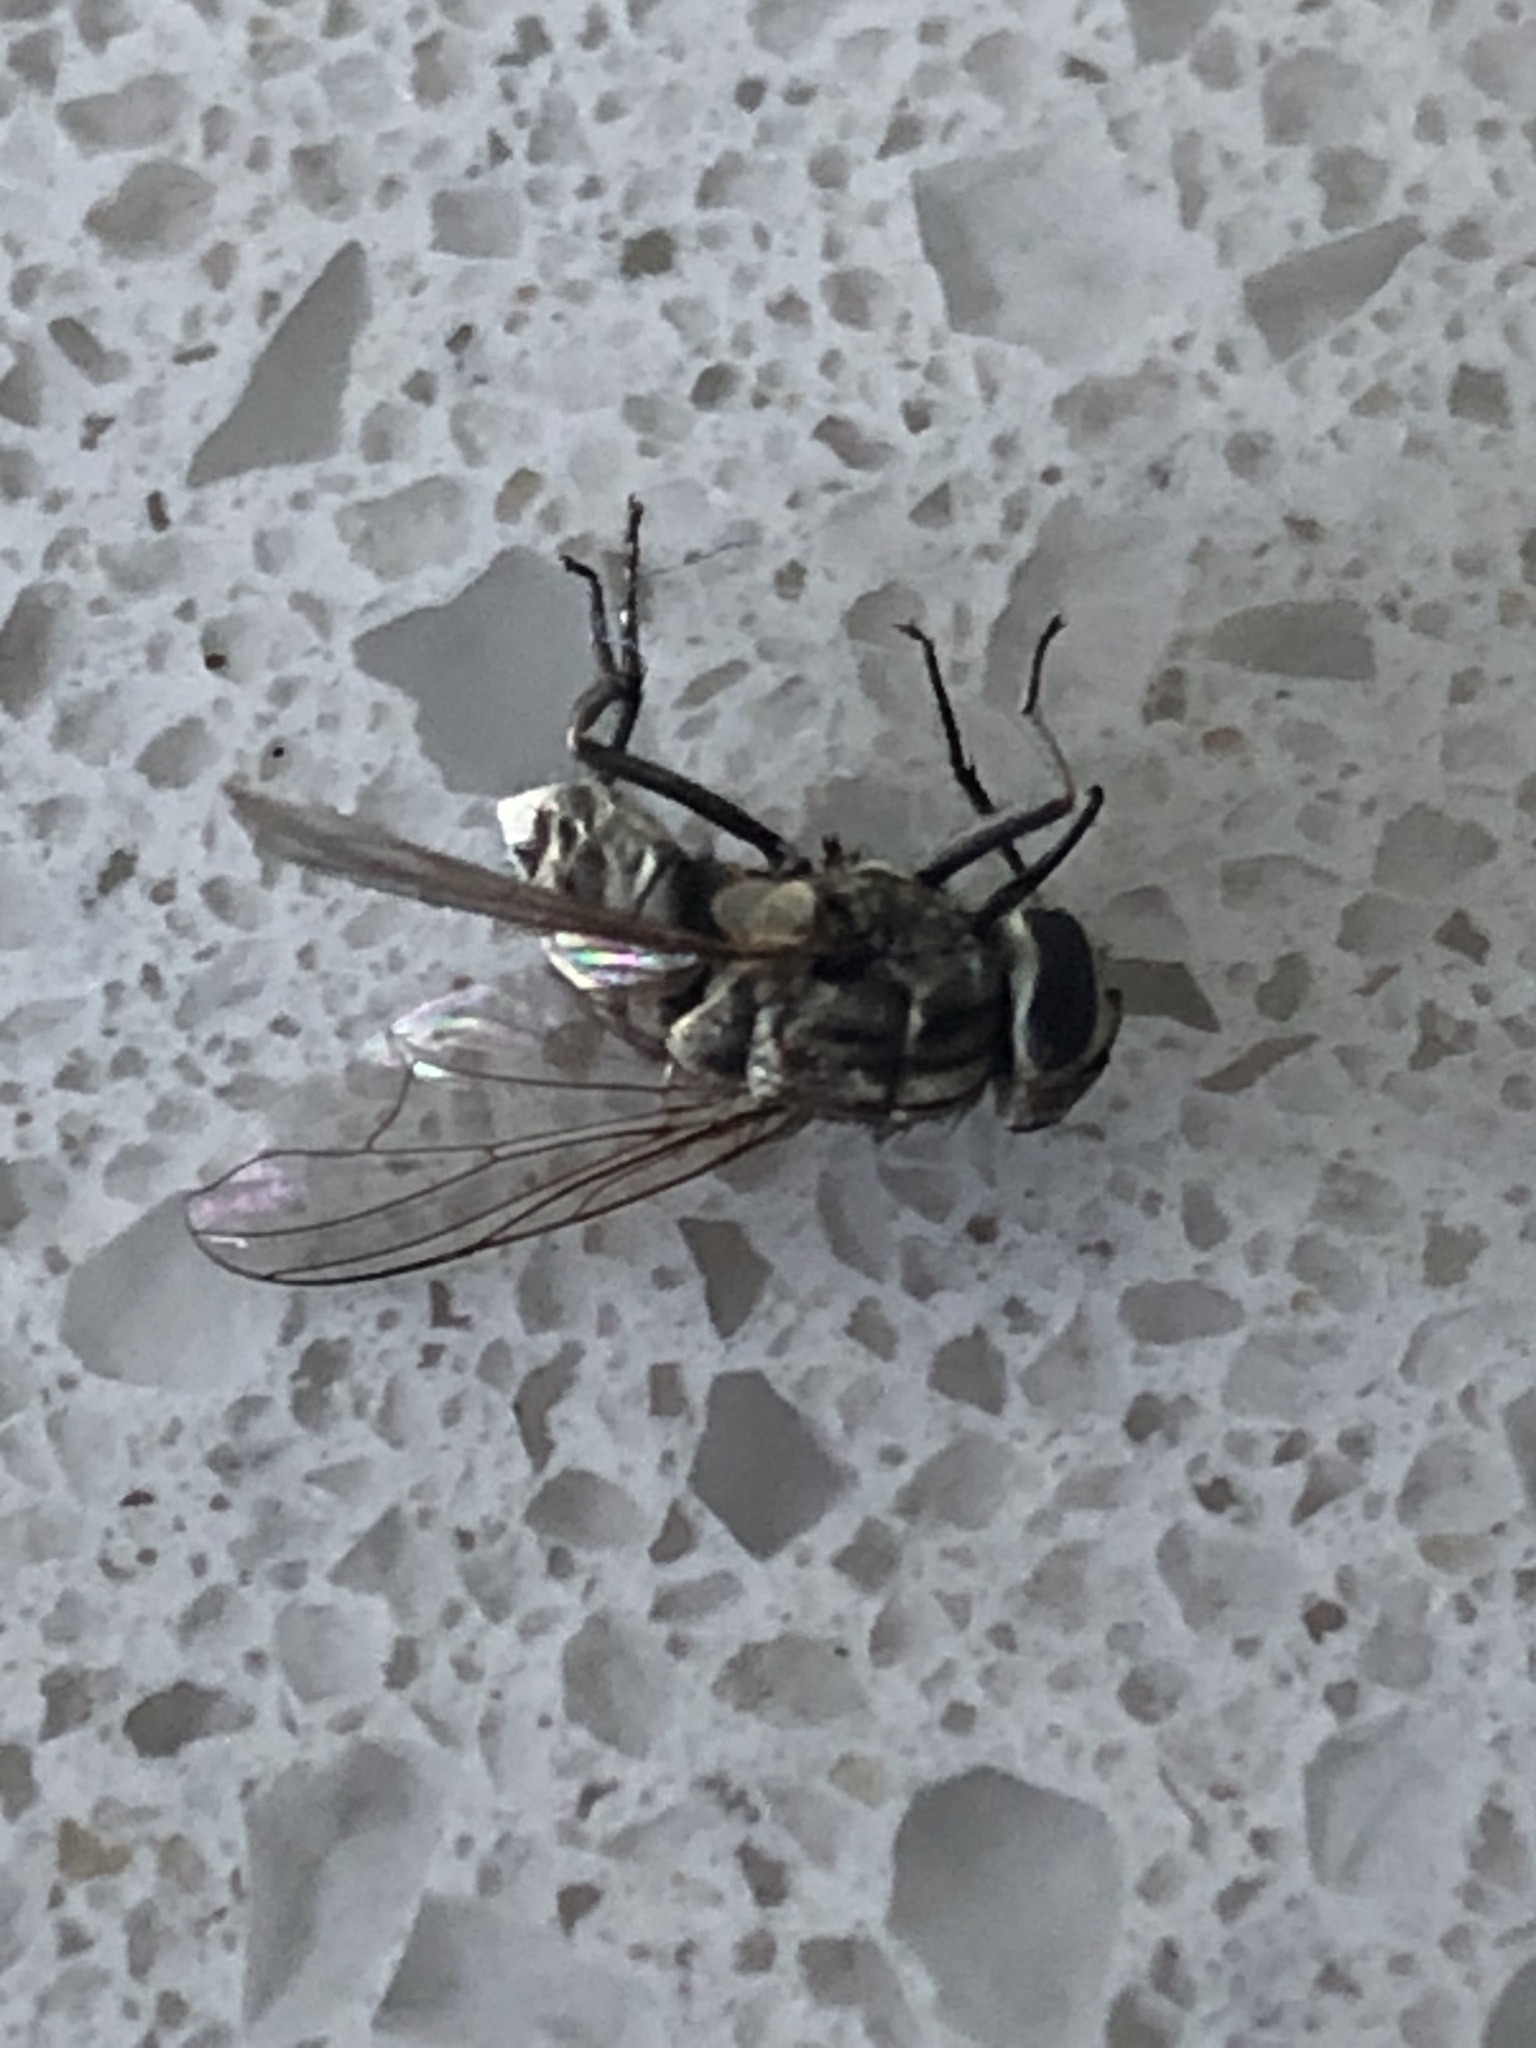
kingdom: Animalia
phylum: Arthropoda
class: Insecta
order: Diptera
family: Muscidae
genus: Stomoxys
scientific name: Stomoxys calcitrans
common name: Stable fly
